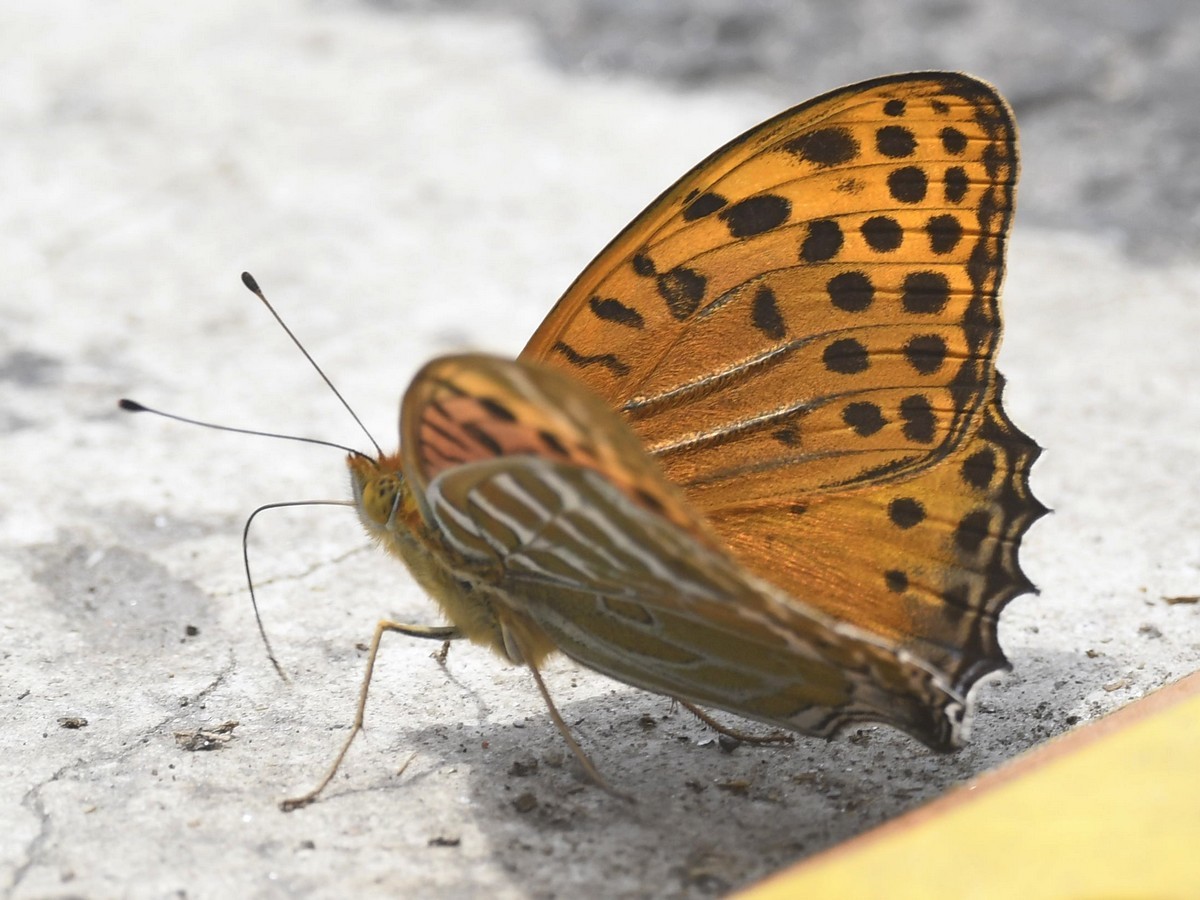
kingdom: Animalia
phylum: Arthropoda
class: Insecta
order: Lepidoptera
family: Nymphalidae
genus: Childrena
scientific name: Childrena childreni
